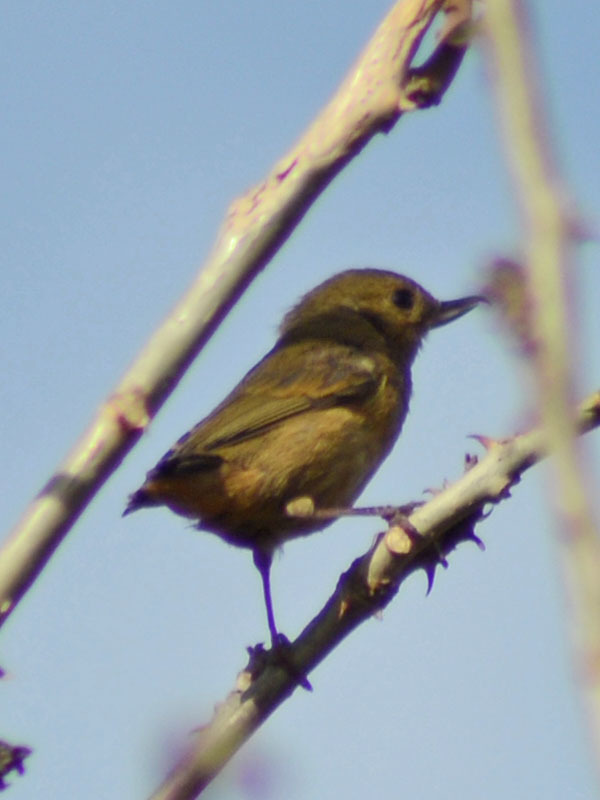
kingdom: Animalia
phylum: Chordata
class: Aves
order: Passeriformes
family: Thraupidae
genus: Diglossa
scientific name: Diglossa baritula
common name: Cinnamon-bellied flowerpiercer
